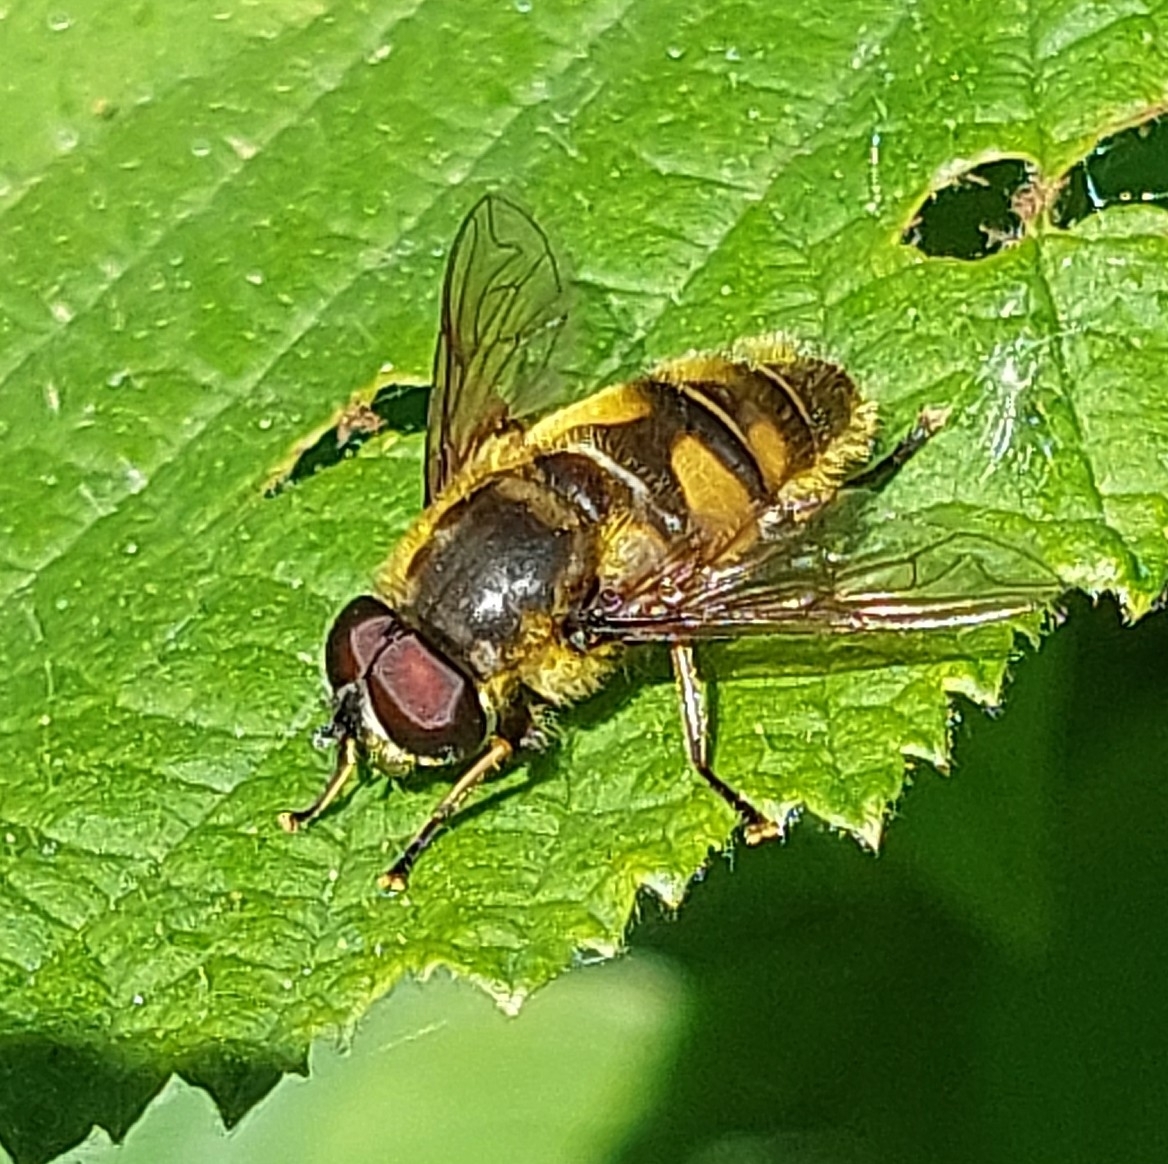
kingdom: Animalia
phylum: Arthropoda
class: Insecta
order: Diptera
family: Syrphidae
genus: Myathropa
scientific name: Myathropa florea
